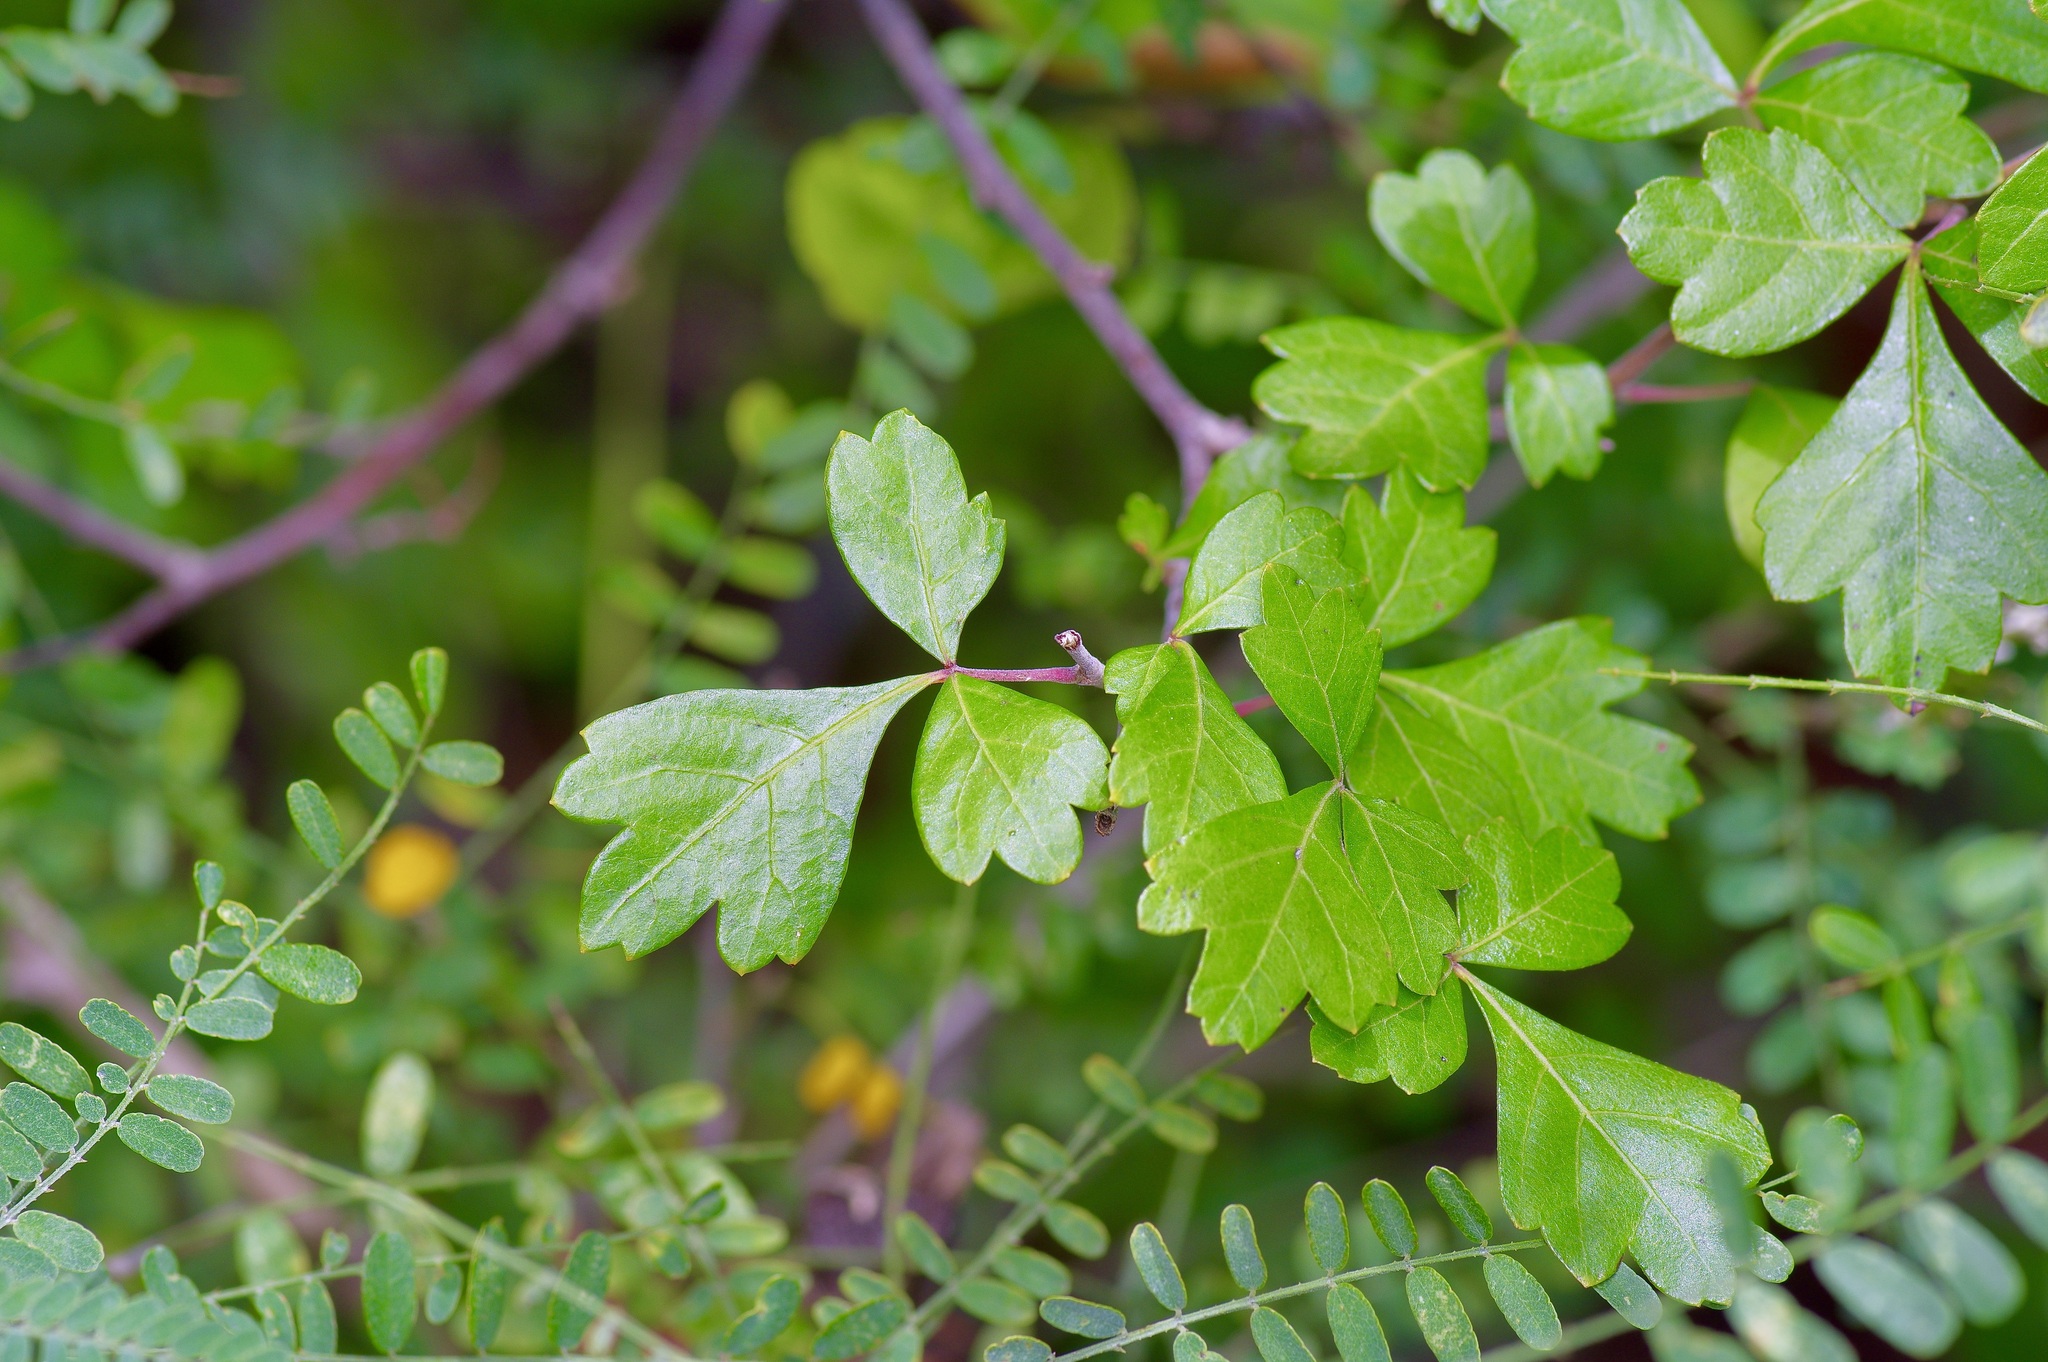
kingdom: Plantae
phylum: Tracheophyta
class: Magnoliopsida
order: Sapindales
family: Anacardiaceae
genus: Rhus
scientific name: Rhus aromatica
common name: Aromatic sumac
